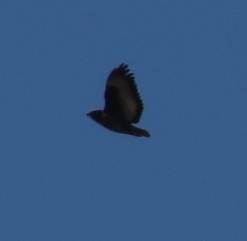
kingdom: Animalia
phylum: Chordata
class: Aves
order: Accipitriformes
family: Accipitridae
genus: Buteo
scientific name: Buteo rufofuscus
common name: Jackal buzzard
